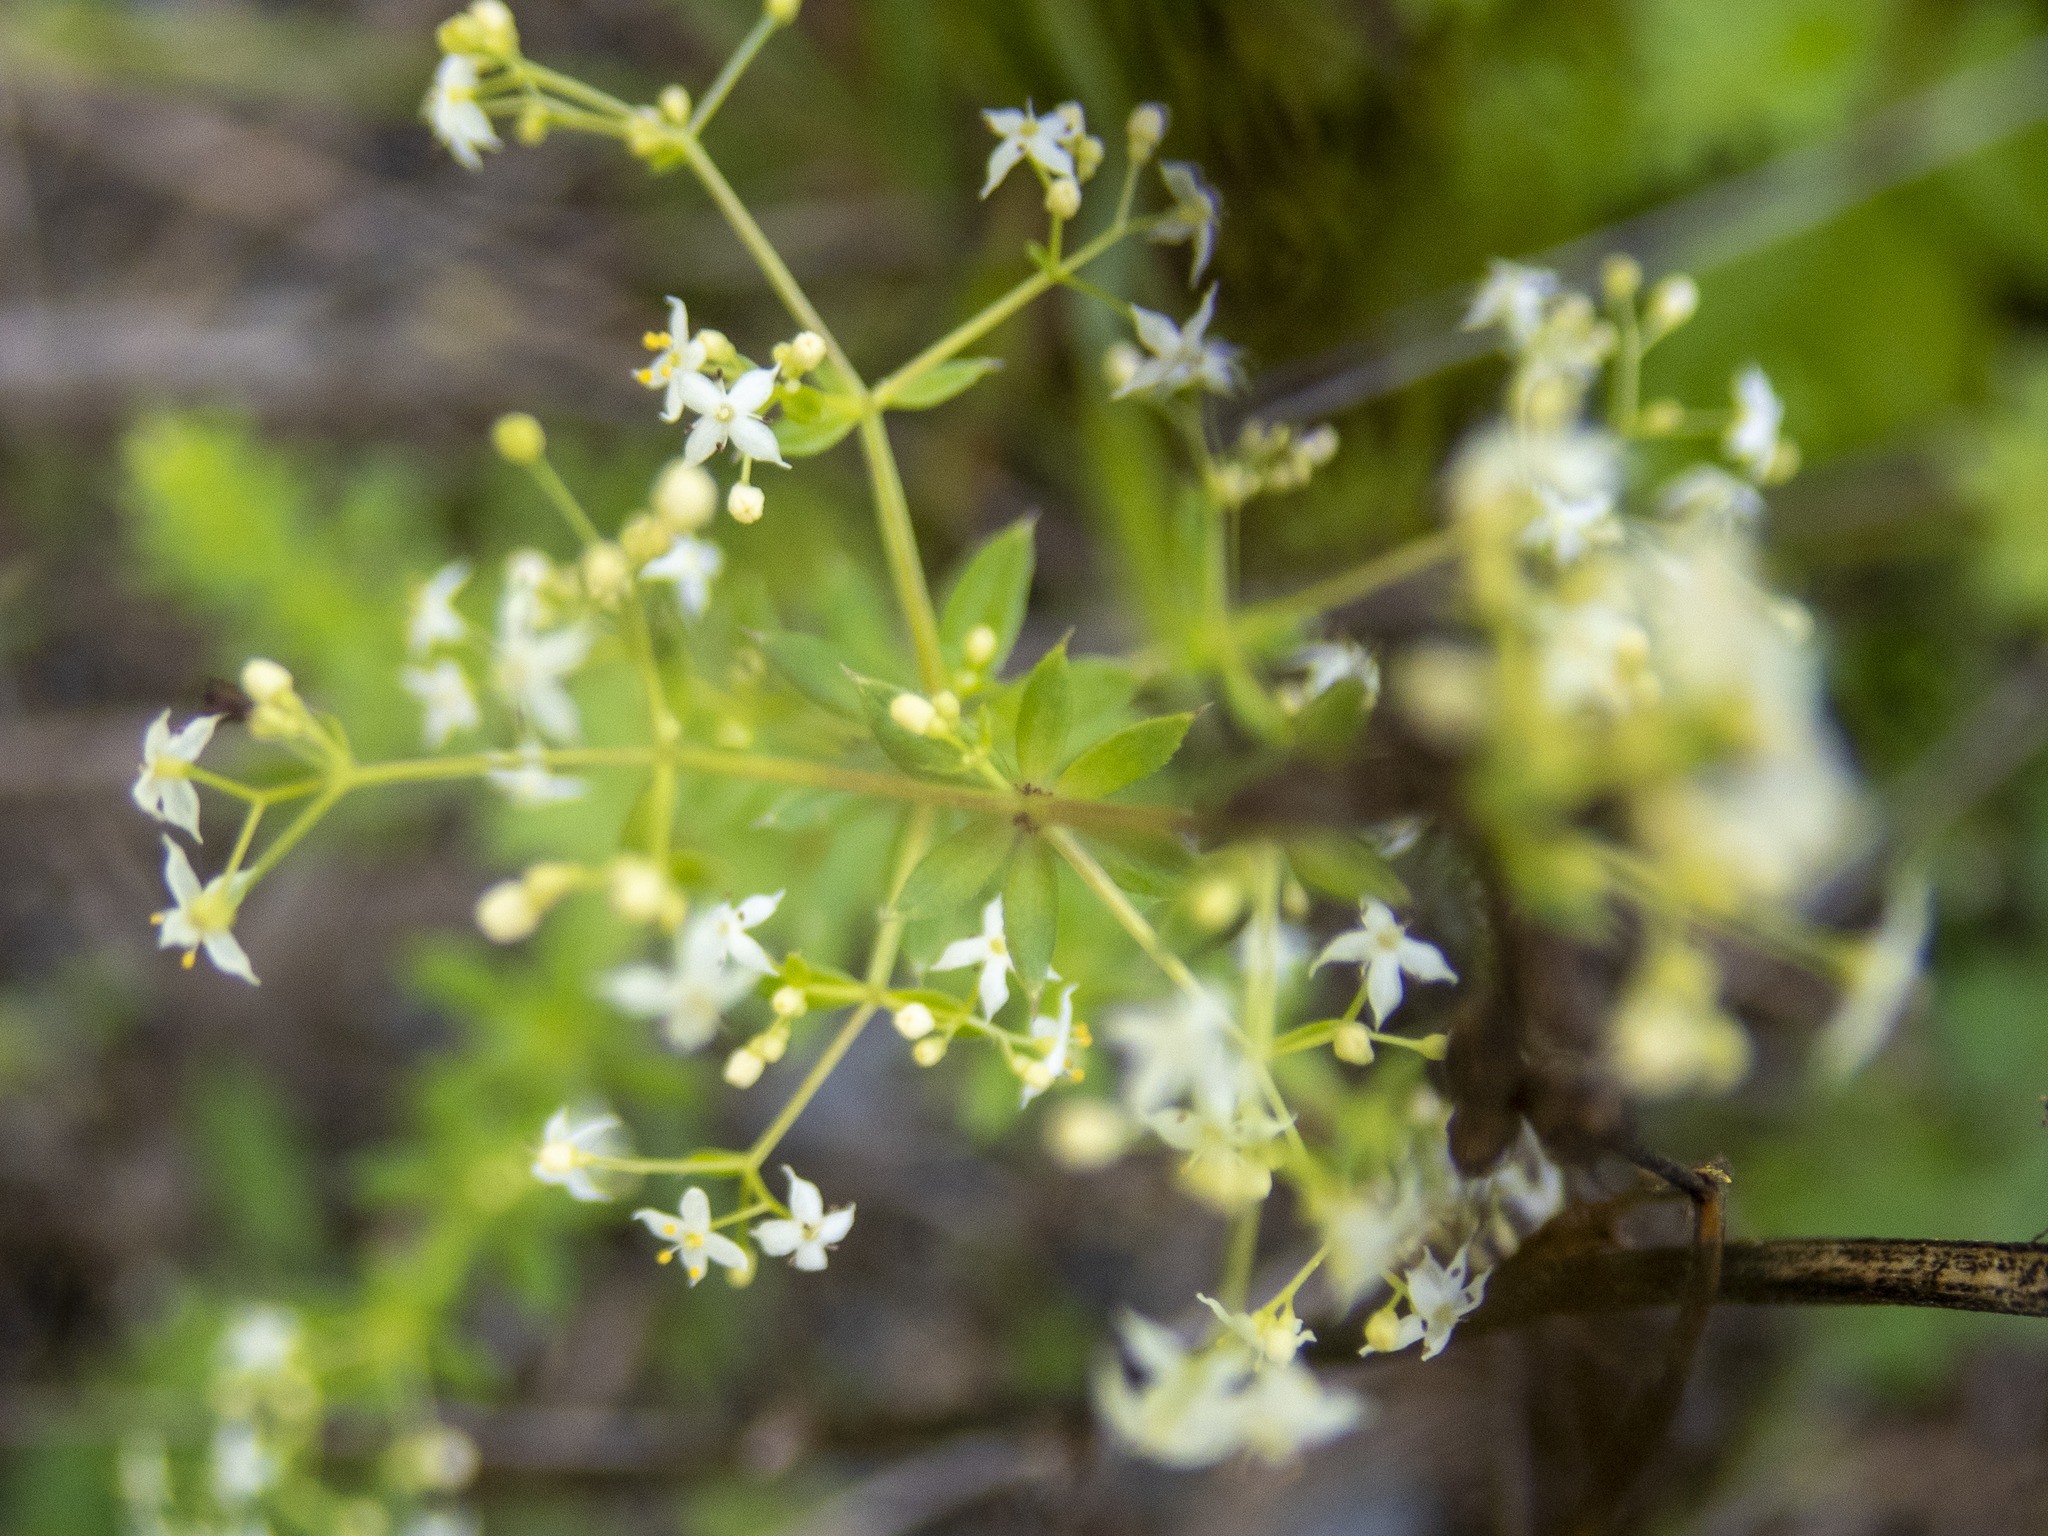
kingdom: Plantae
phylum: Tracheophyta
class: Magnoliopsida
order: Gentianales
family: Rubiaceae
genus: Galium
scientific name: Galium album
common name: White bedstraw
